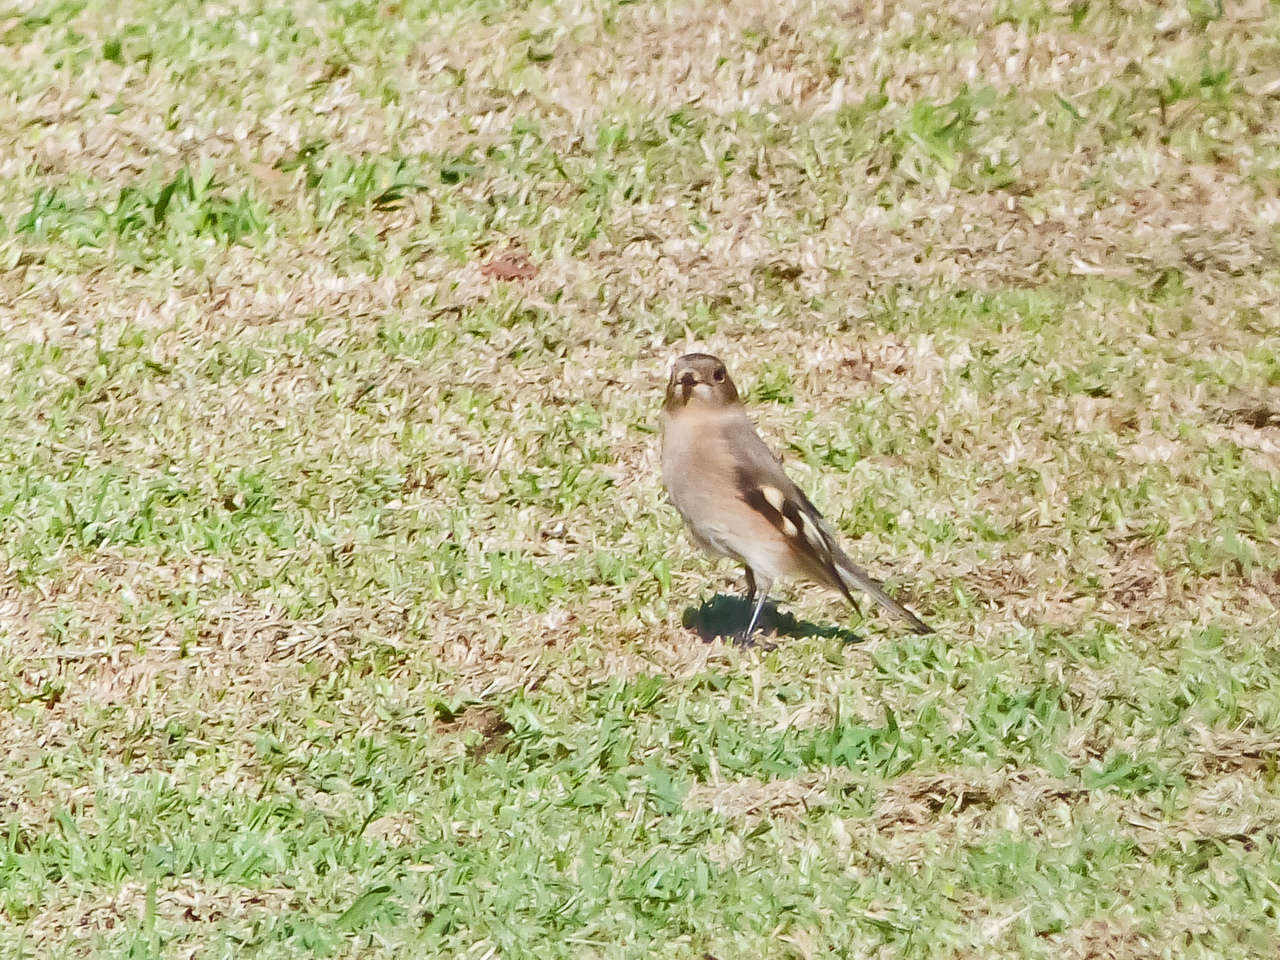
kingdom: Animalia
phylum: Chordata
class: Aves
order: Passeriformes
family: Petroicidae
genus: Petroica
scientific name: Petroica phoenicea
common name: Flame robin
